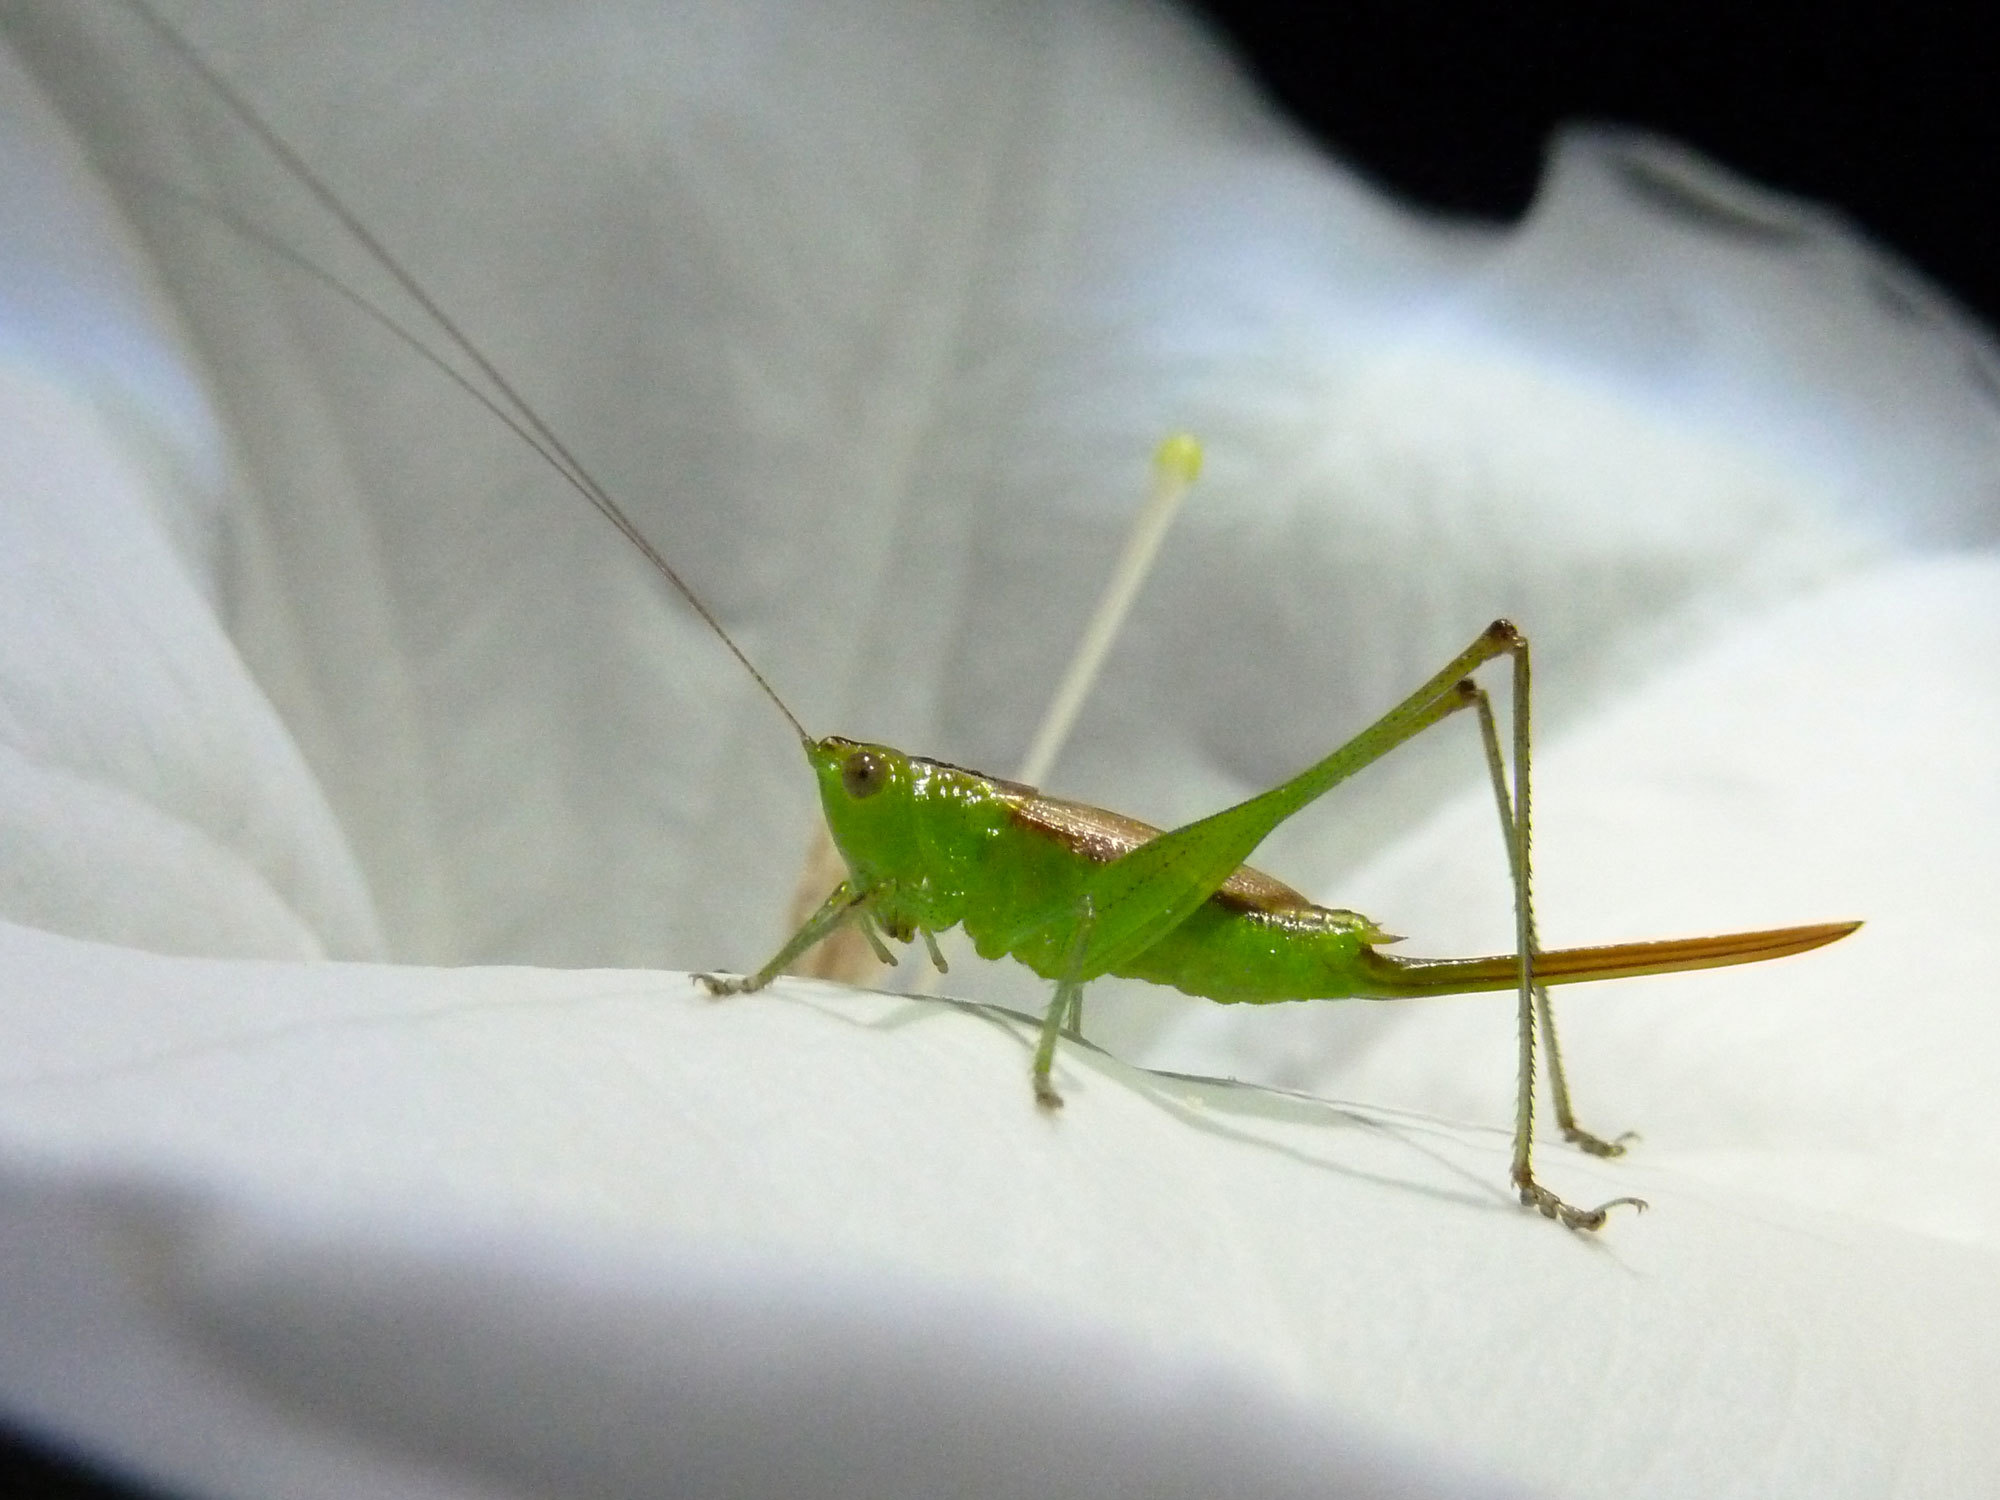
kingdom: Animalia
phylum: Arthropoda
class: Insecta
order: Orthoptera
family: Tettigoniidae
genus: Conocephalus
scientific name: Conocephalus brevipennis
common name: Short-winged meadow katydid
